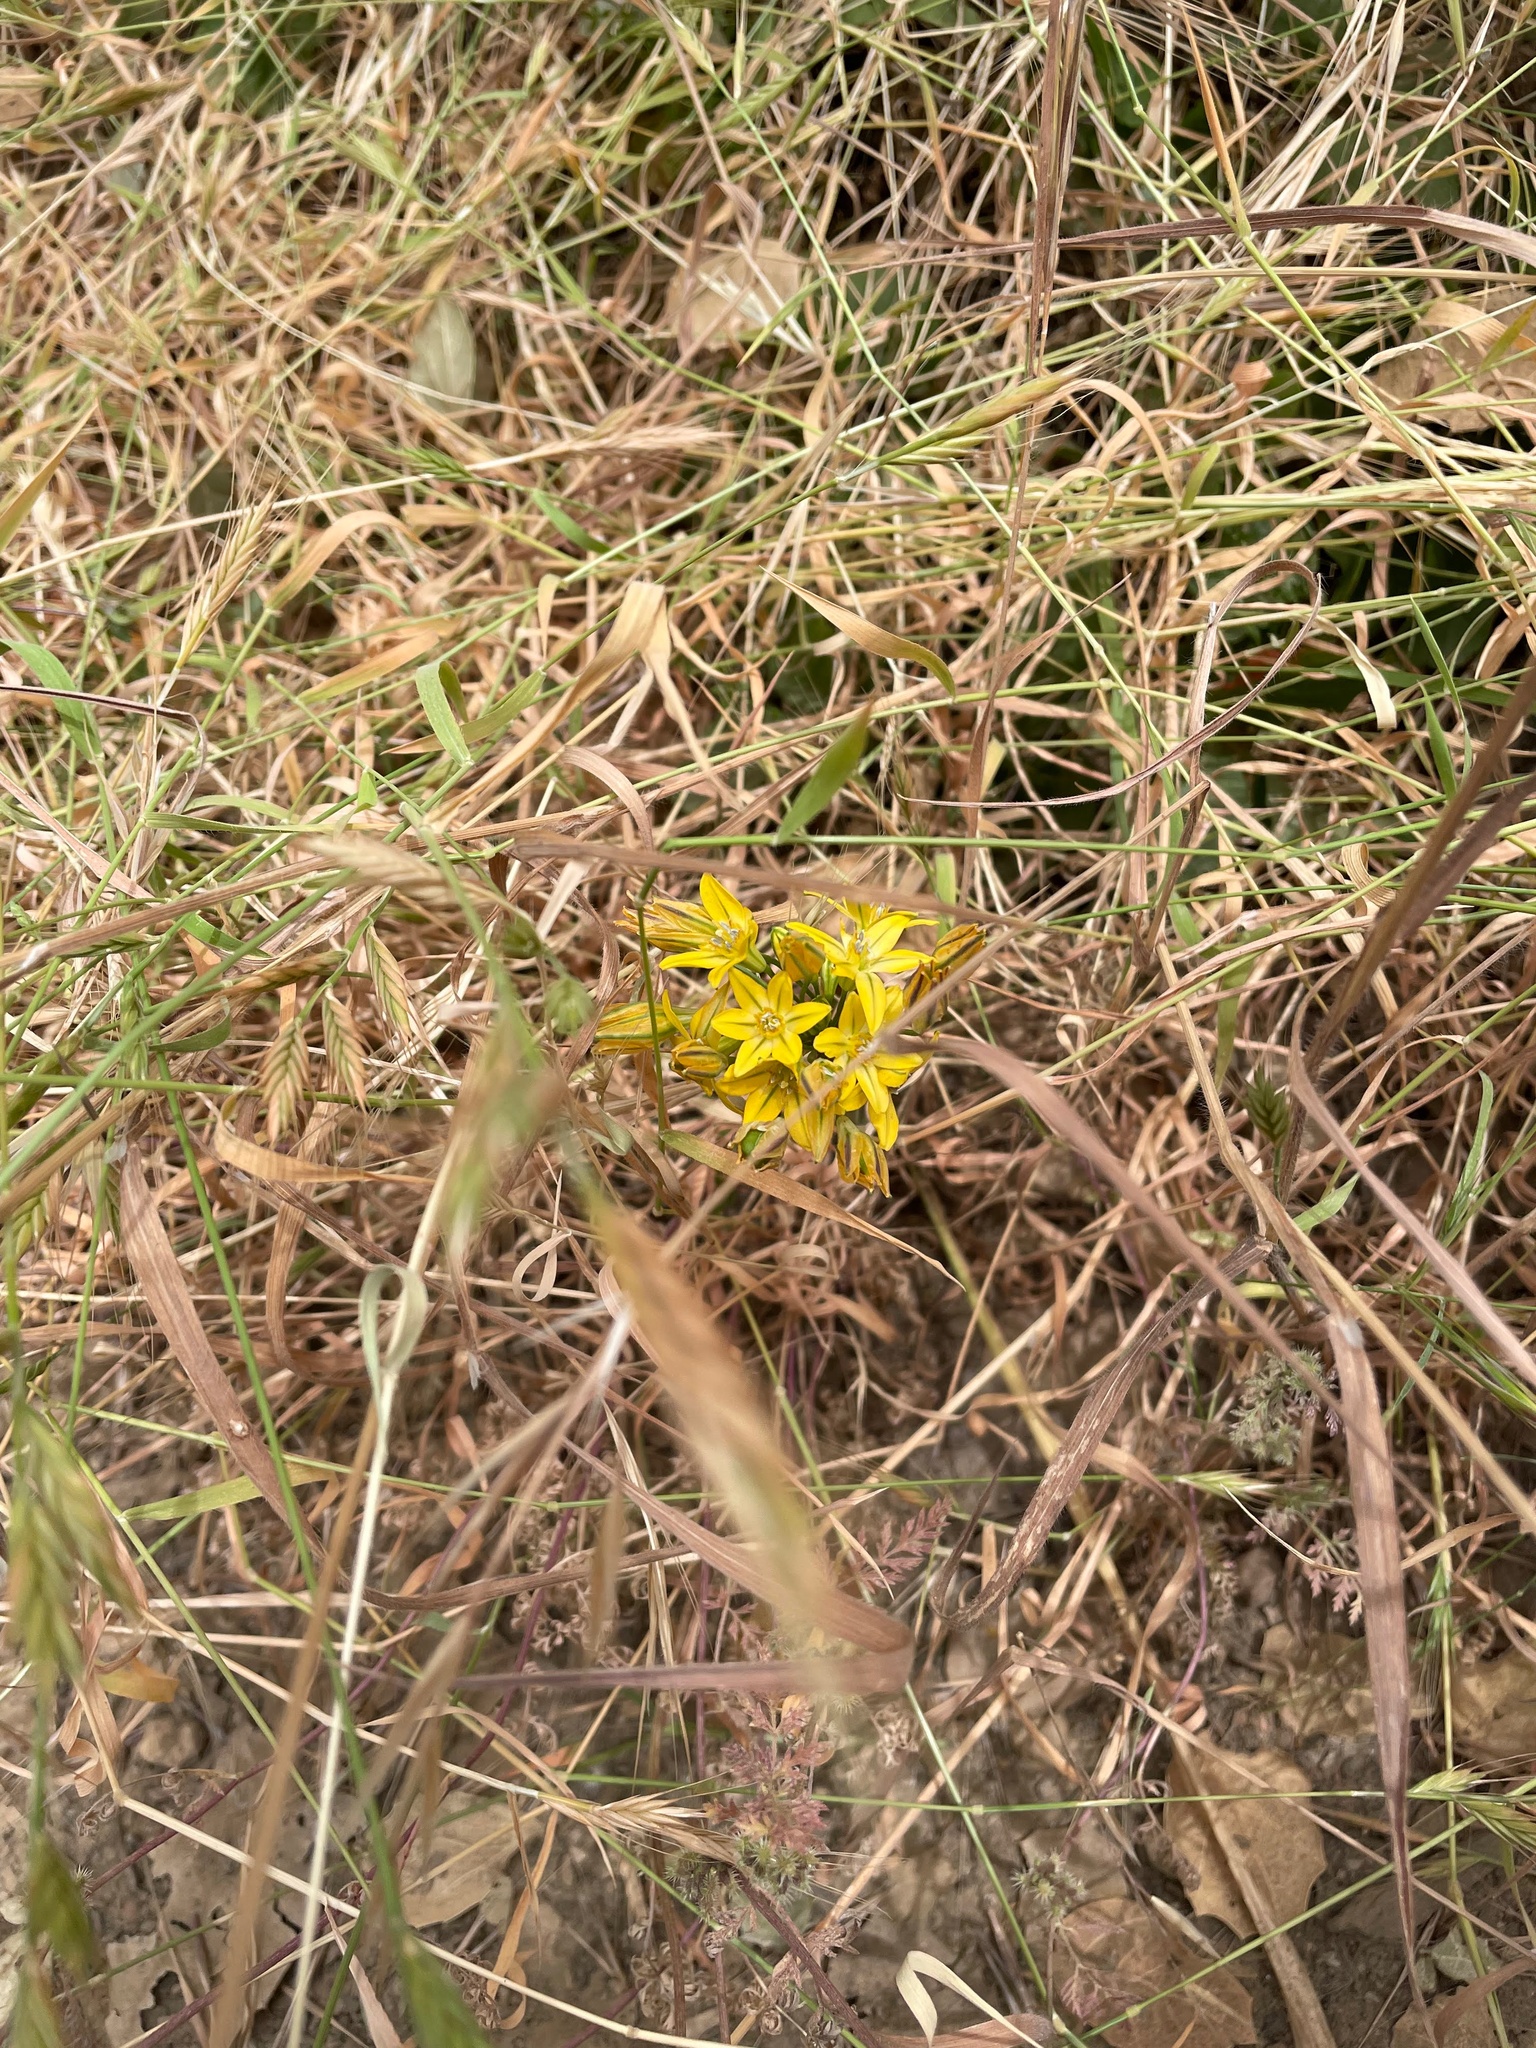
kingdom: Plantae
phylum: Tracheophyta
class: Liliopsida
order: Asparagales
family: Asparagaceae
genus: Triteleia
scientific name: Triteleia ixioides
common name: Yellow-brodiaea
